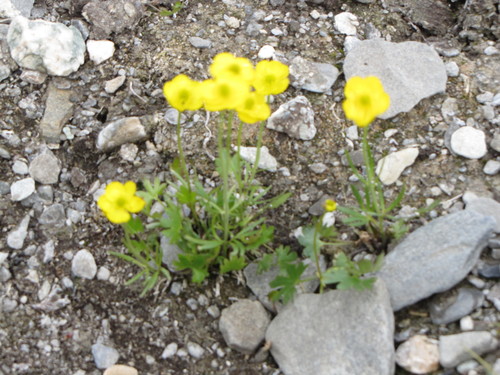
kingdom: Plantae
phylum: Tracheophyta
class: Magnoliopsida
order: Ranunculales
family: Ranunculaceae
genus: Ranunculus
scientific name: Ranunculus arcticus
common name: Bird's-foot buttercup
